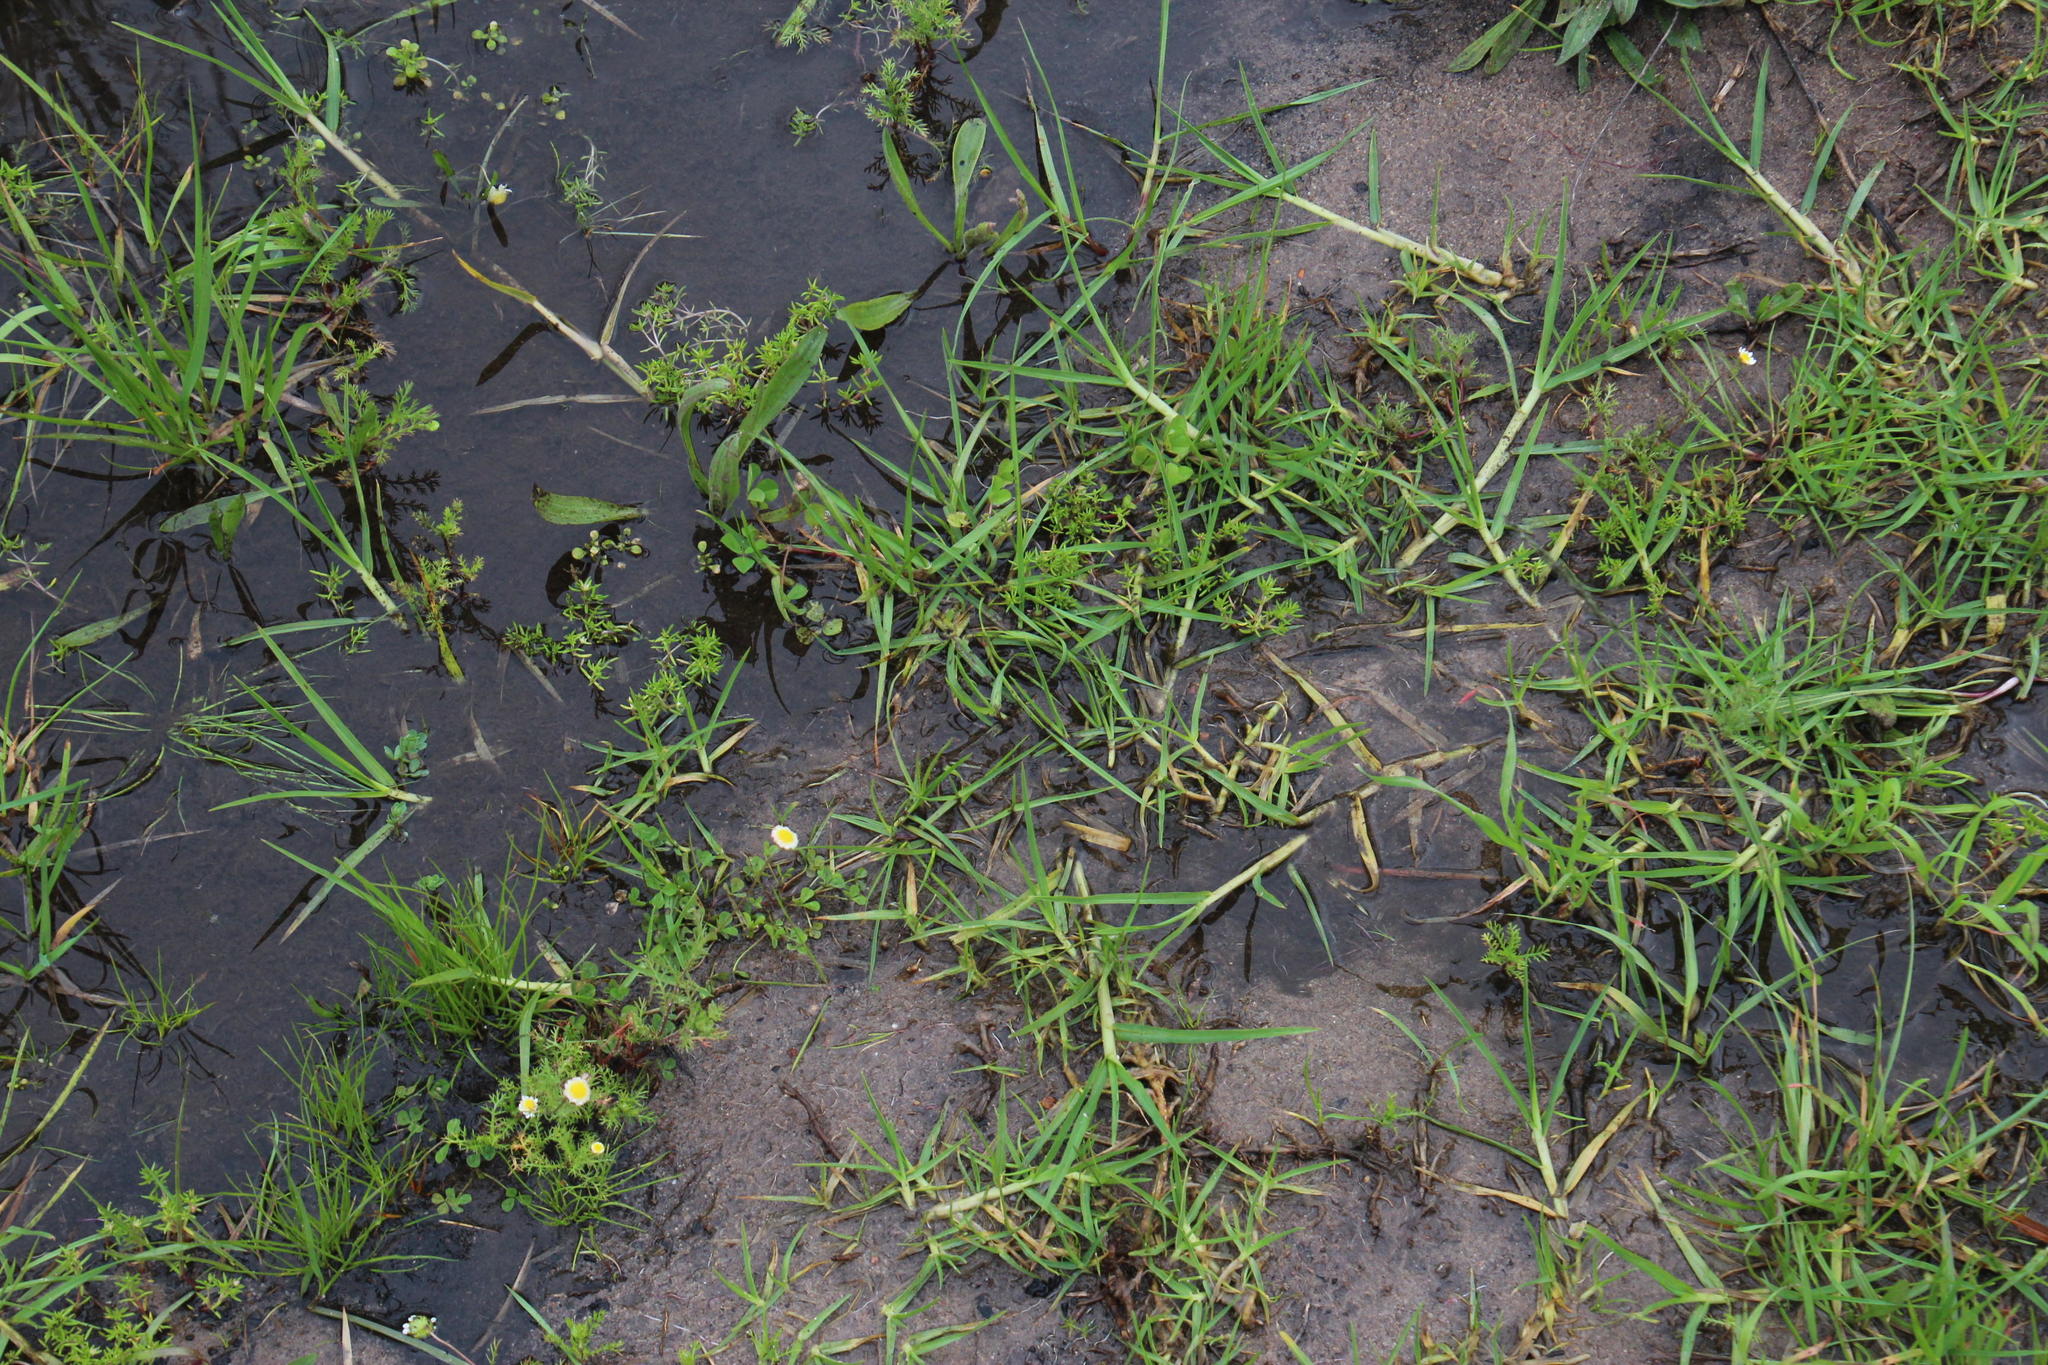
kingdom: Plantae
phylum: Tracheophyta
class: Magnoliopsida
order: Saxifragales
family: Crassulaceae
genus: Crassula
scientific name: Crassula gemmifera
